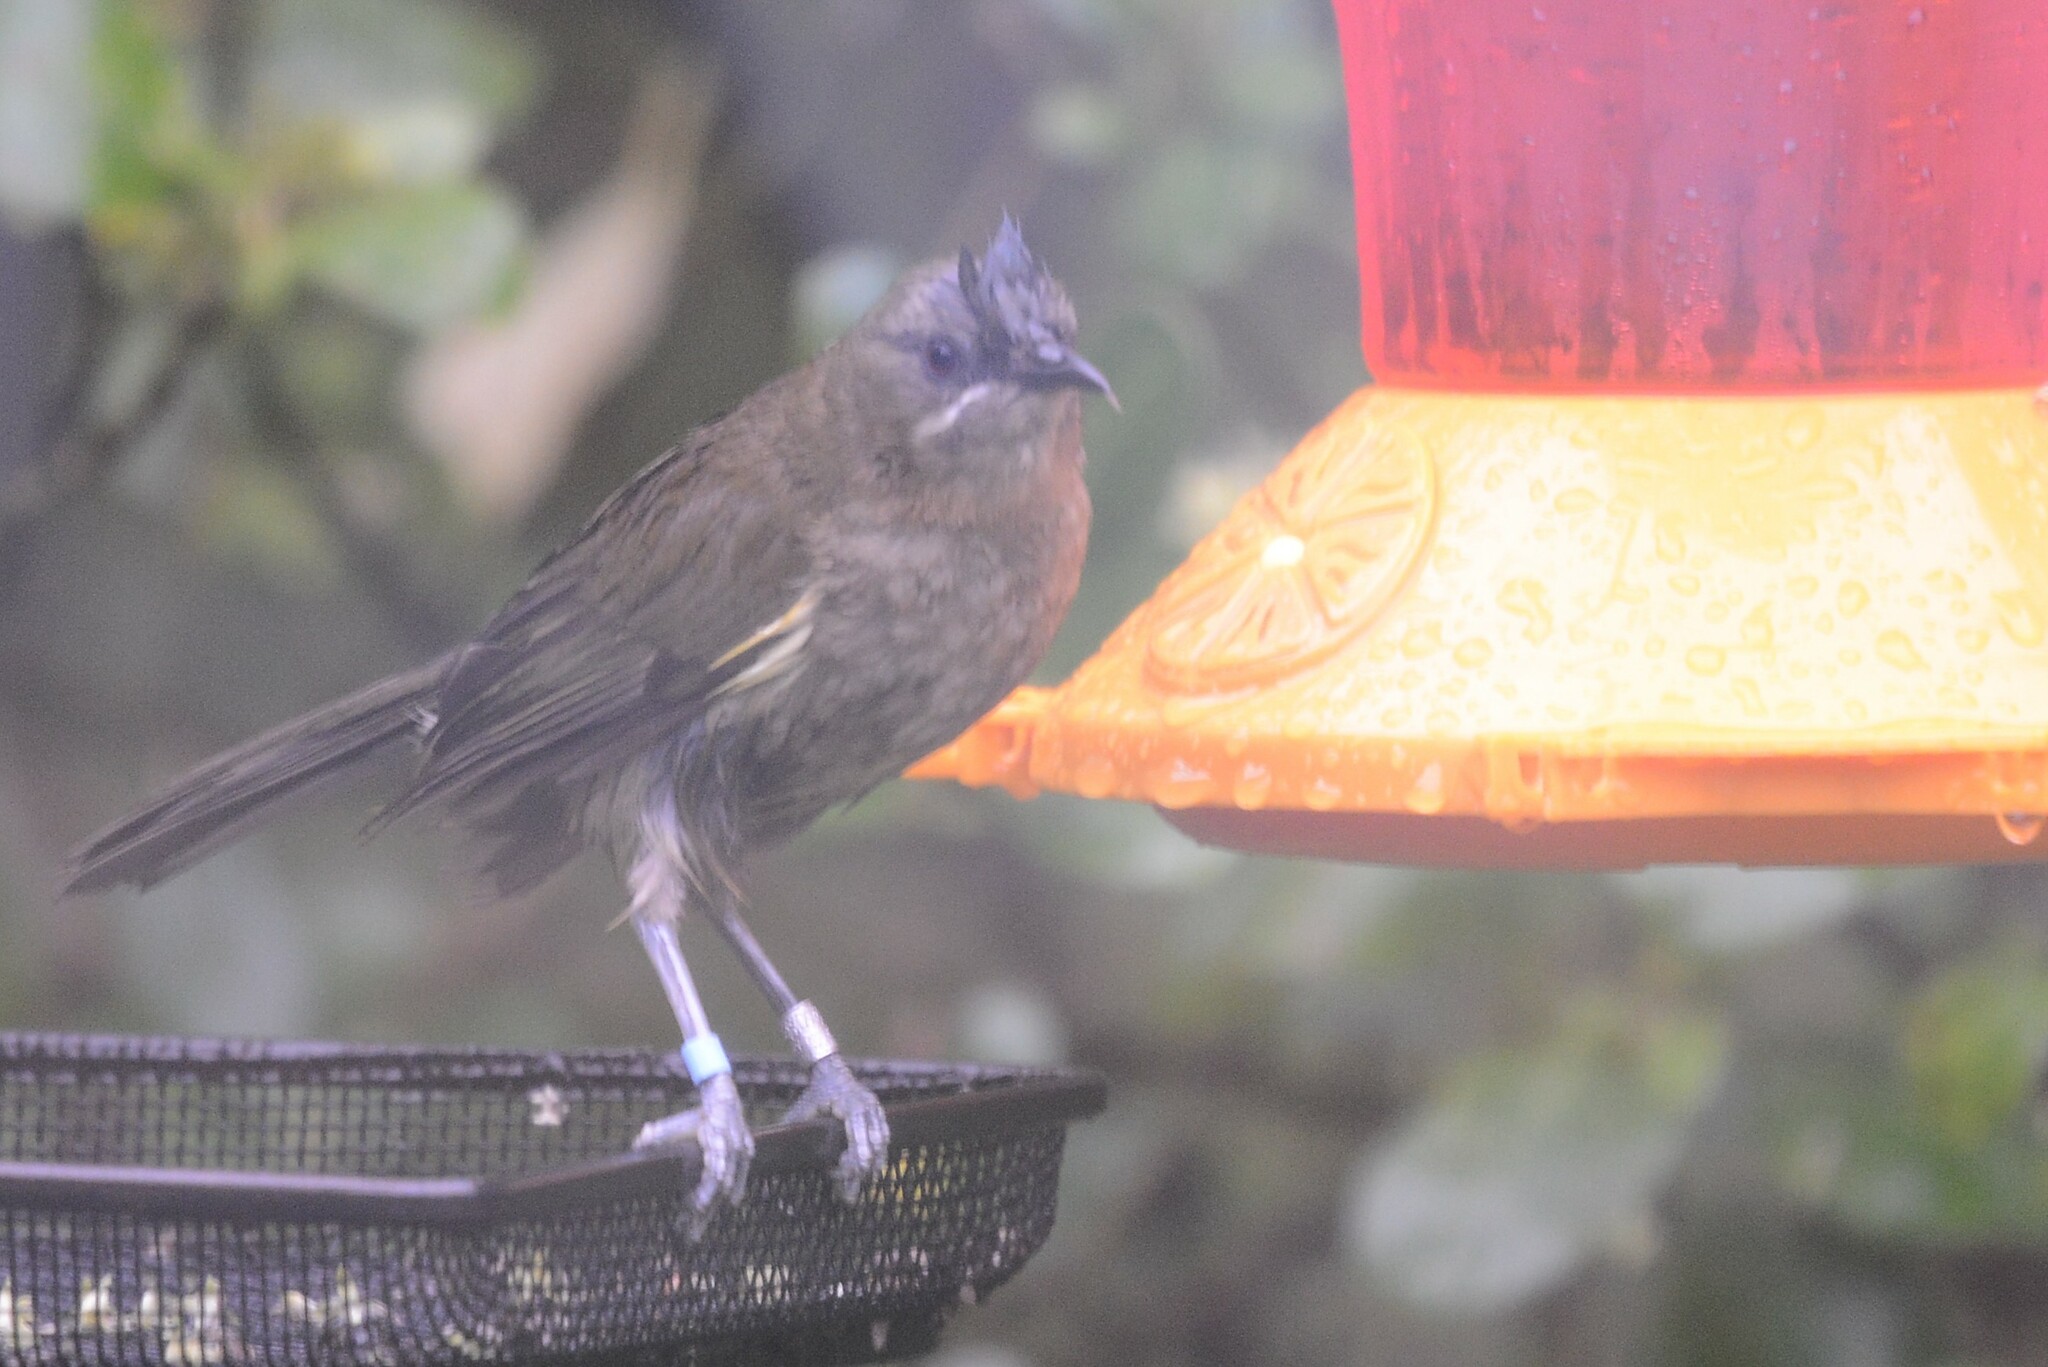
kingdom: Animalia
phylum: Chordata
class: Aves
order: Passeriformes
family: Meliphagidae
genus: Anthornis
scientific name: Anthornis melanura
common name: New zealand bellbird
